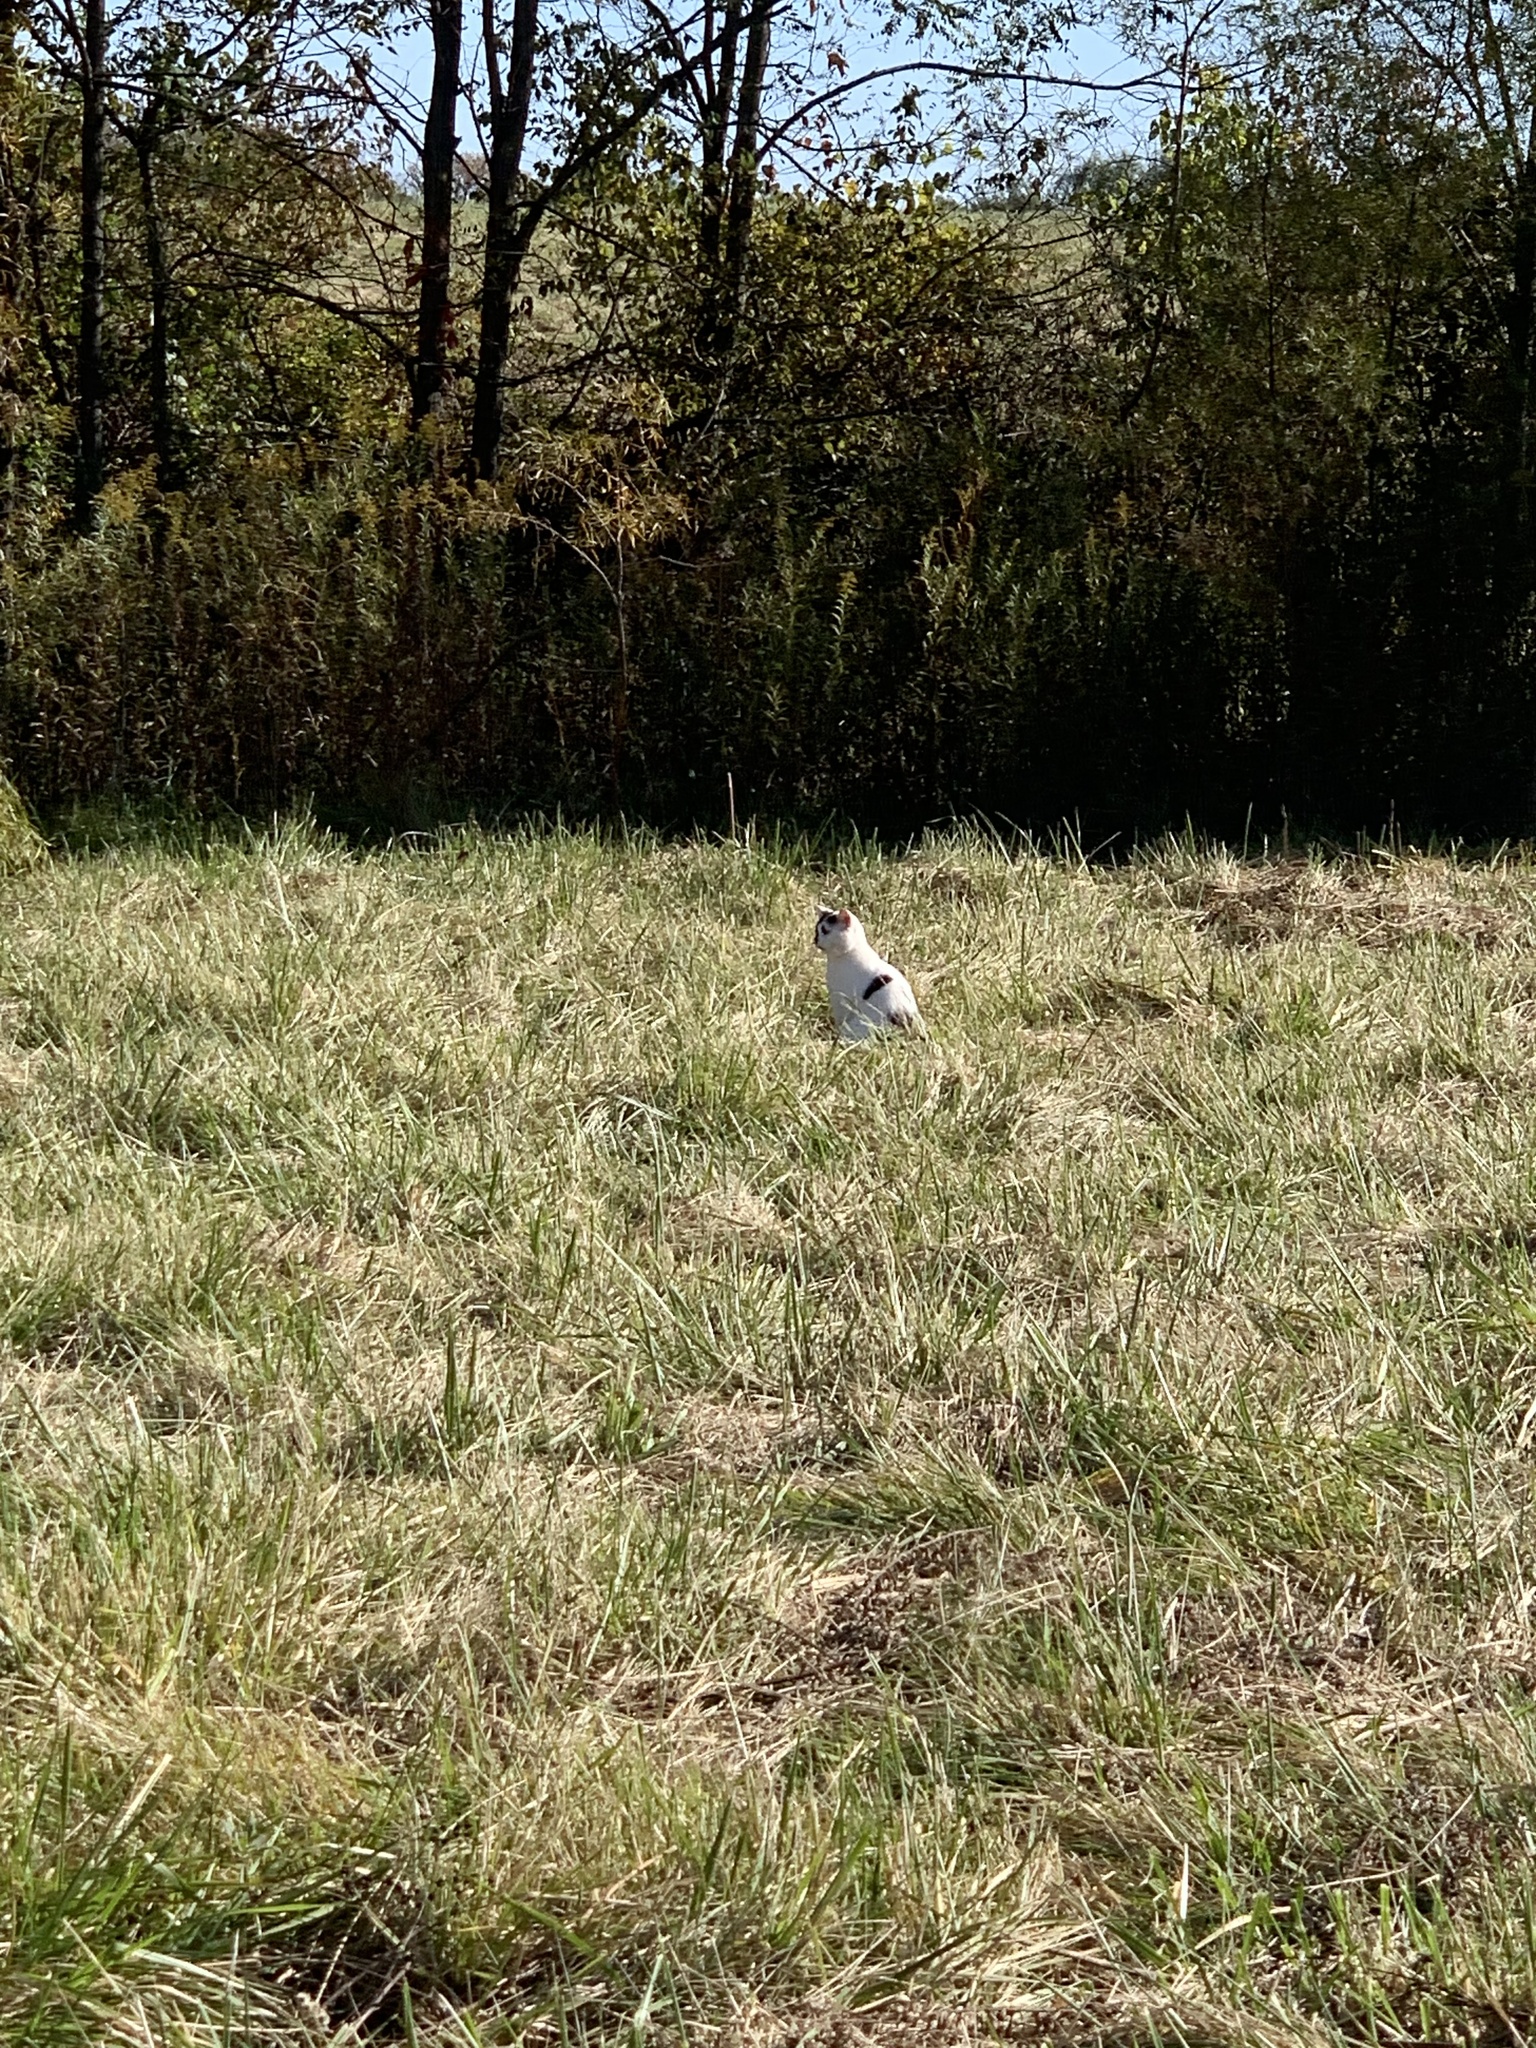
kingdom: Animalia
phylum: Chordata
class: Mammalia
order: Carnivora
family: Felidae
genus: Felis
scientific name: Felis catus
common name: Domestic cat
